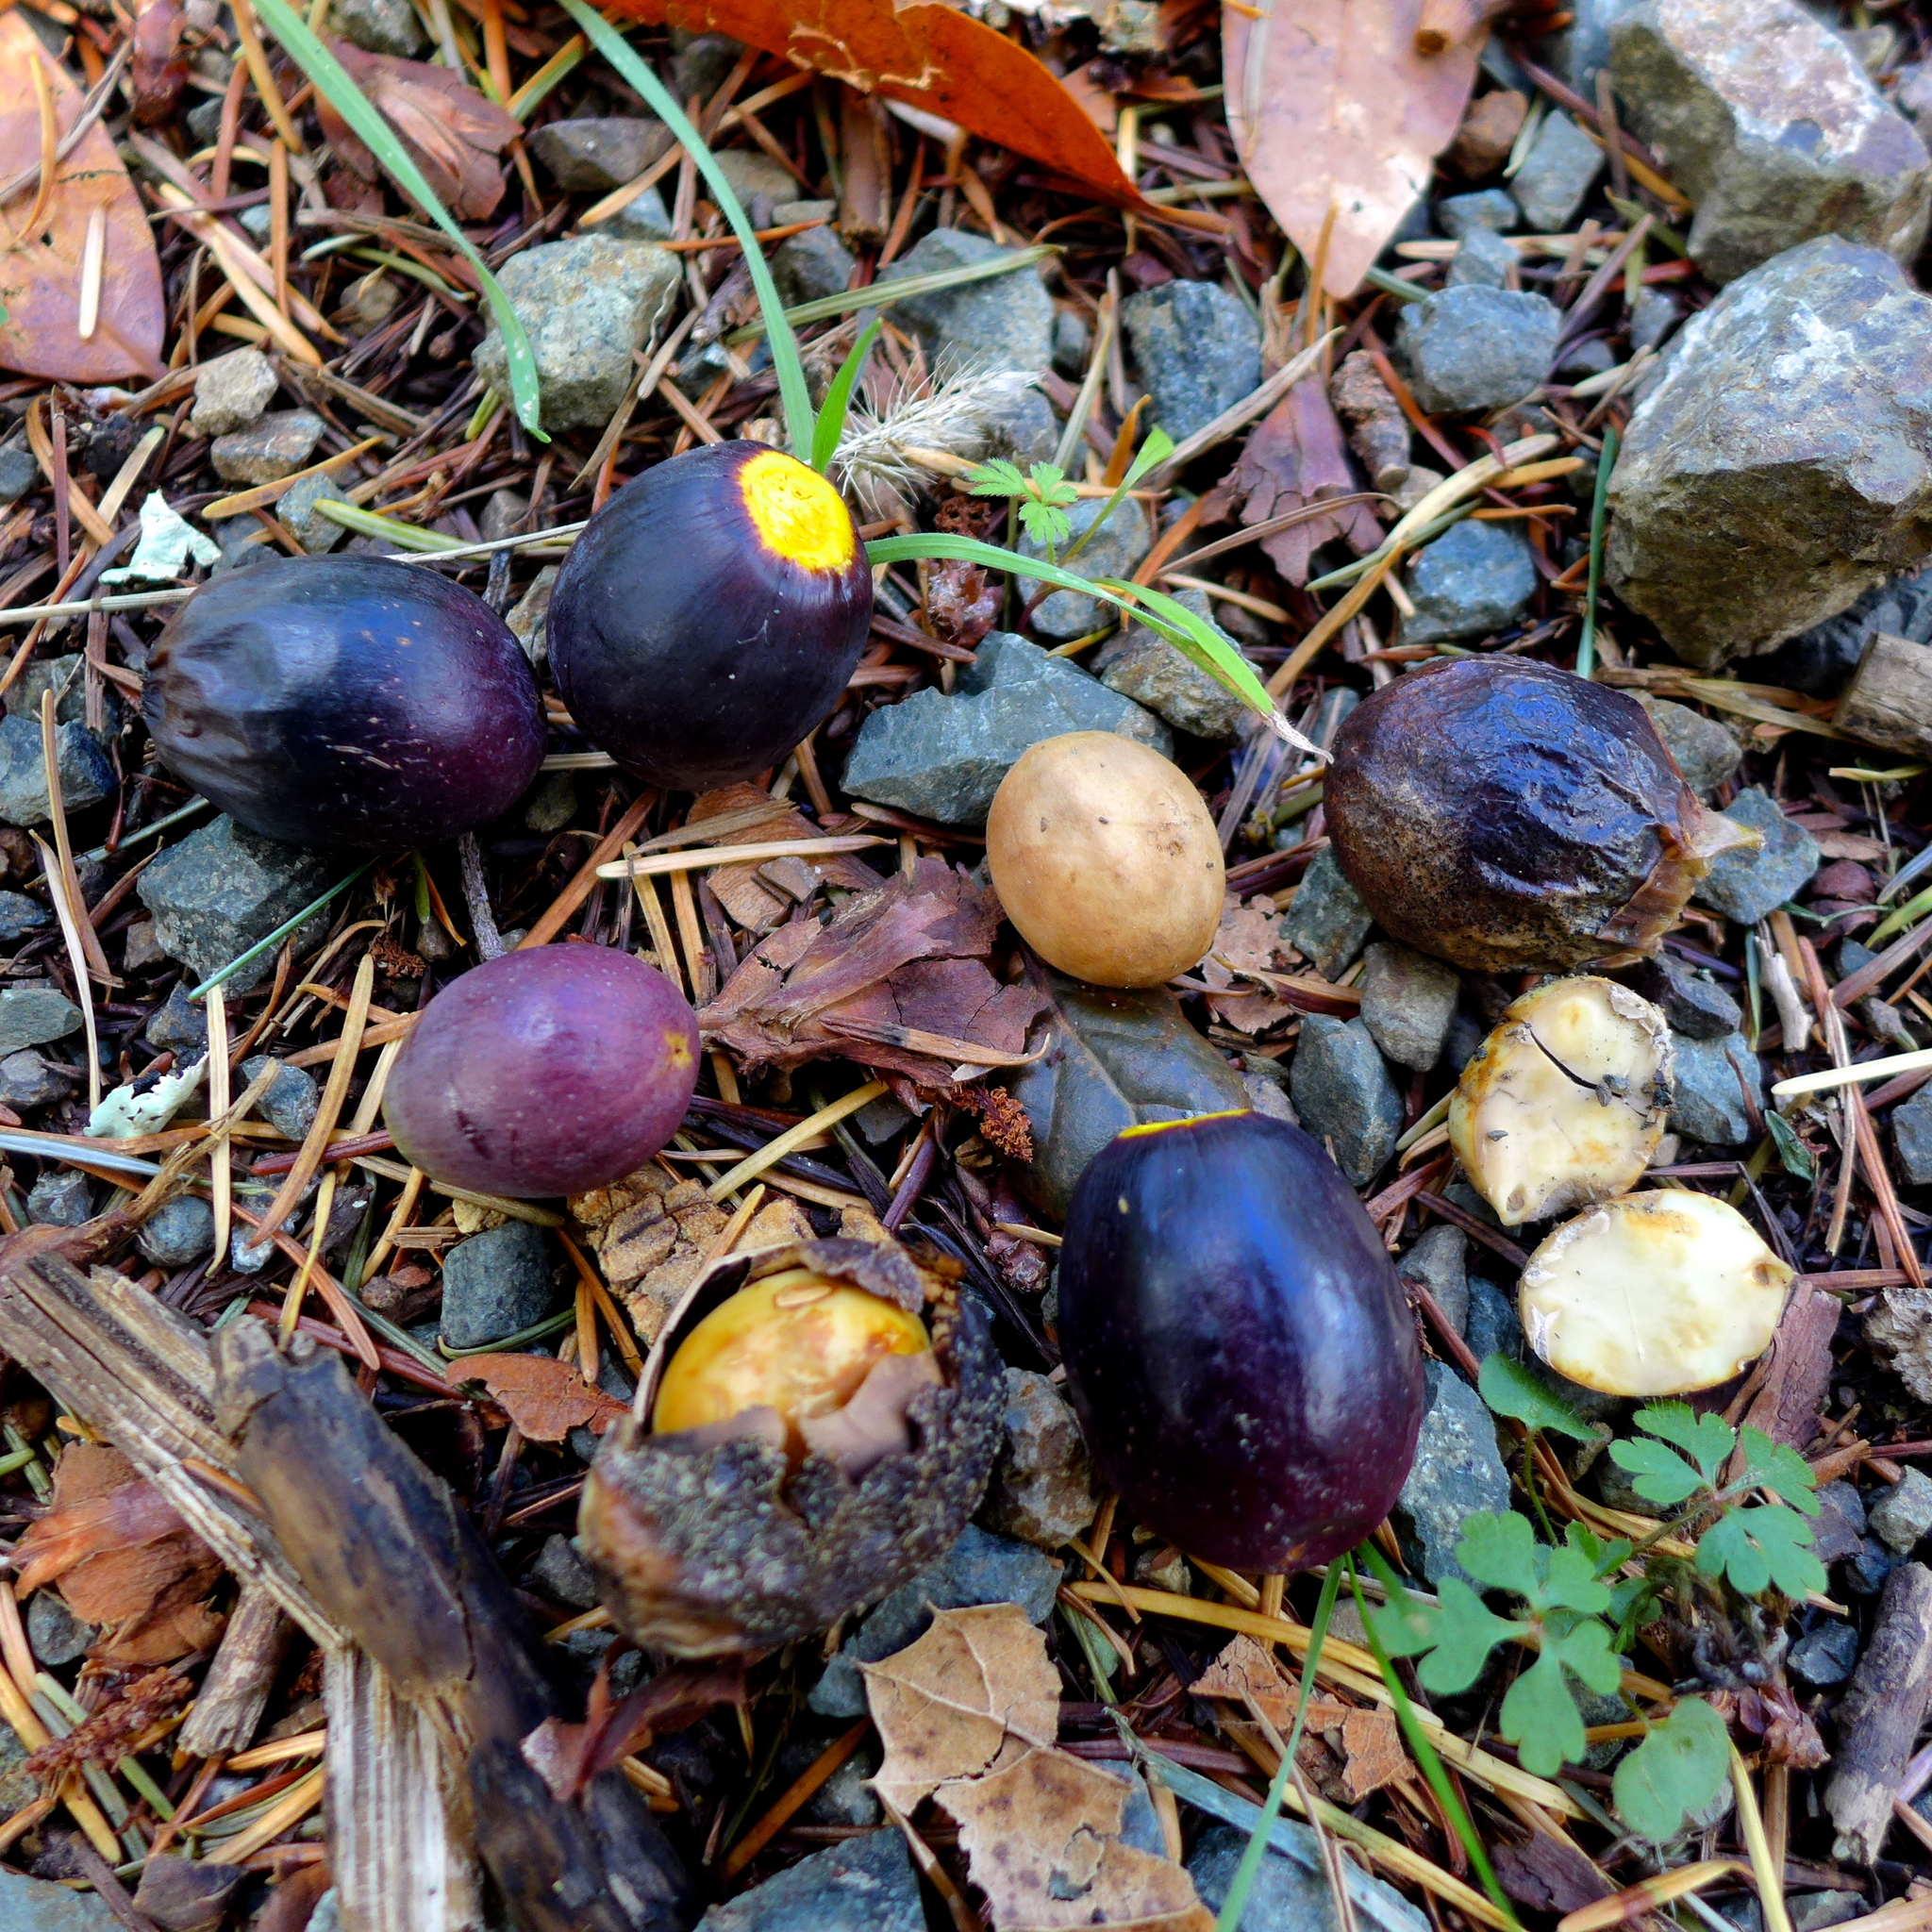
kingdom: Plantae
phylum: Tracheophyta
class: Magnoliopsida
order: Laurales
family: Lauraceae
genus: Umbellularia
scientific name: Umbellularia californica
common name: California bay
